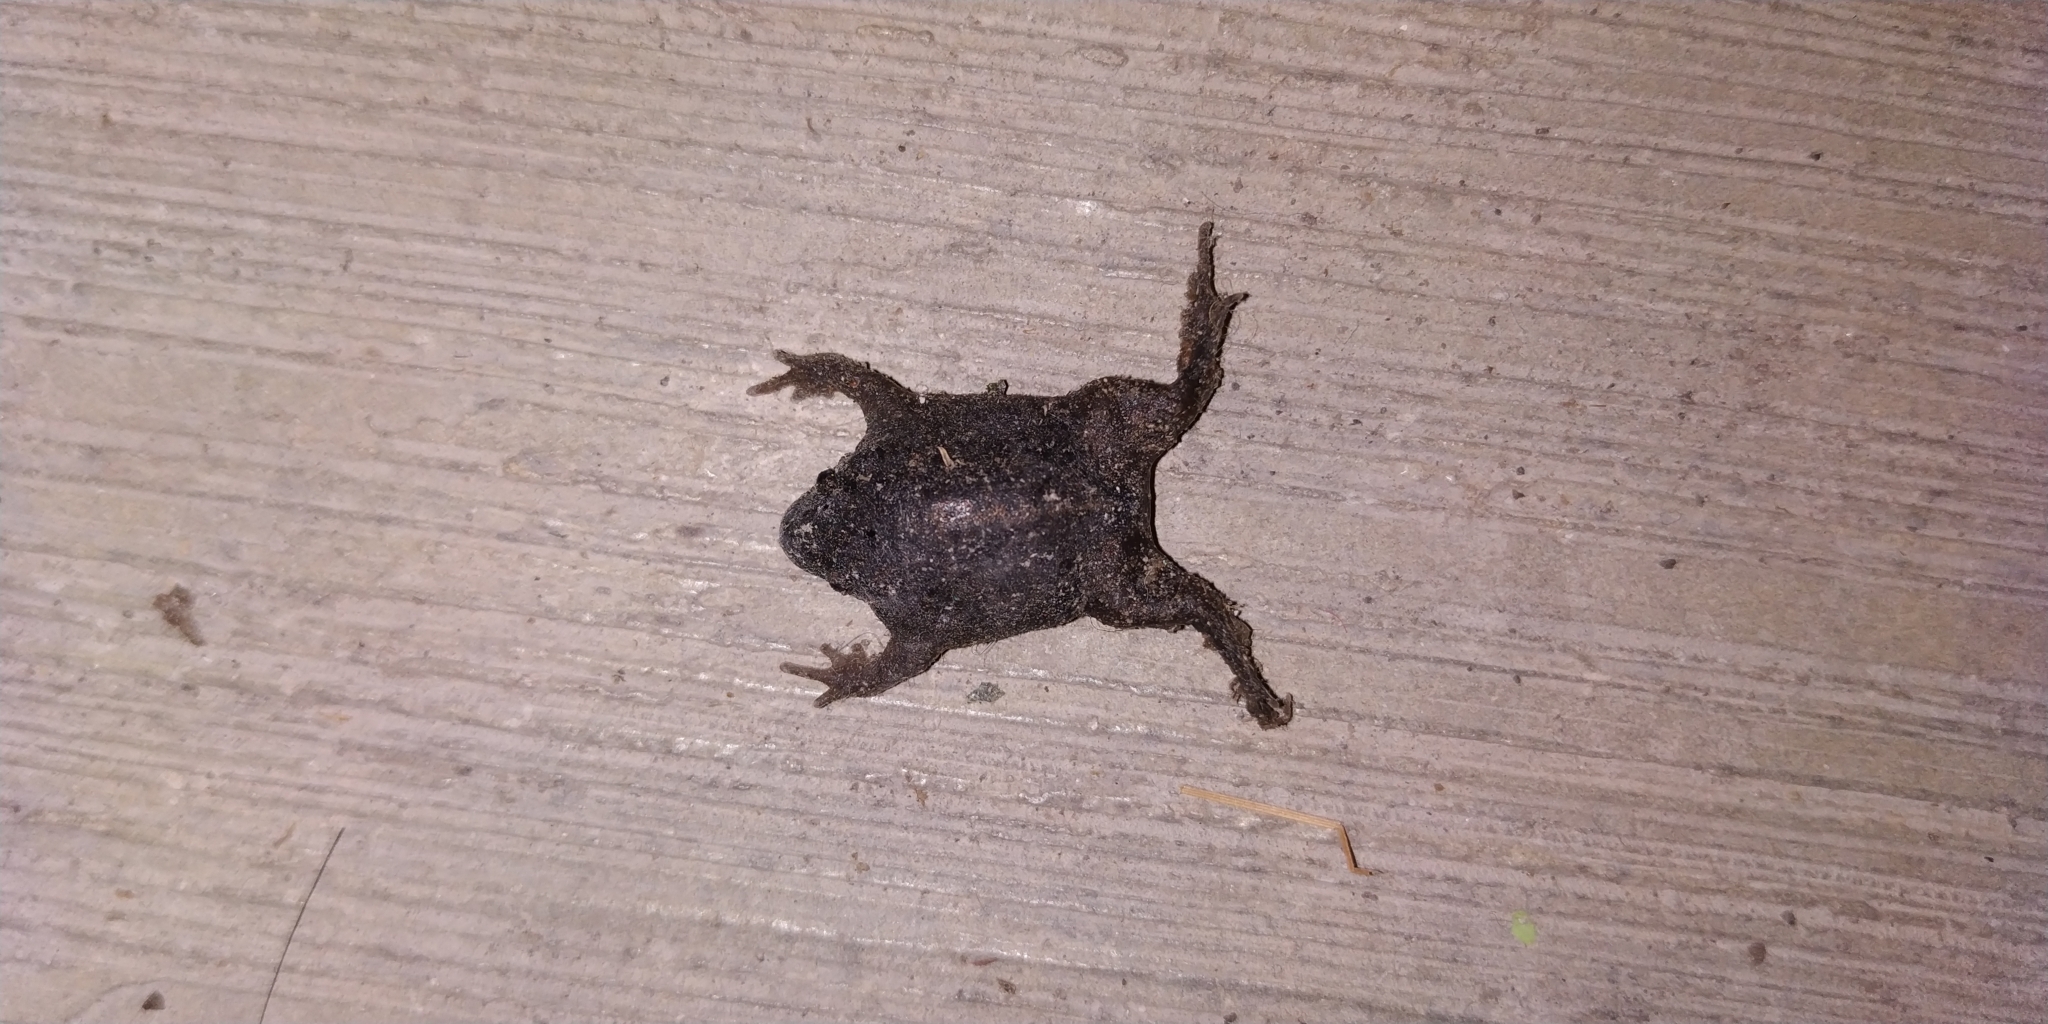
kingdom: Animalia
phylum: Chordata
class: Amphibia
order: Anura
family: Rhinophrynidae
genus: Rhinophrynus
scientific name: Rhinophrynus dorsalis
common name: Mexican burrowing toad
